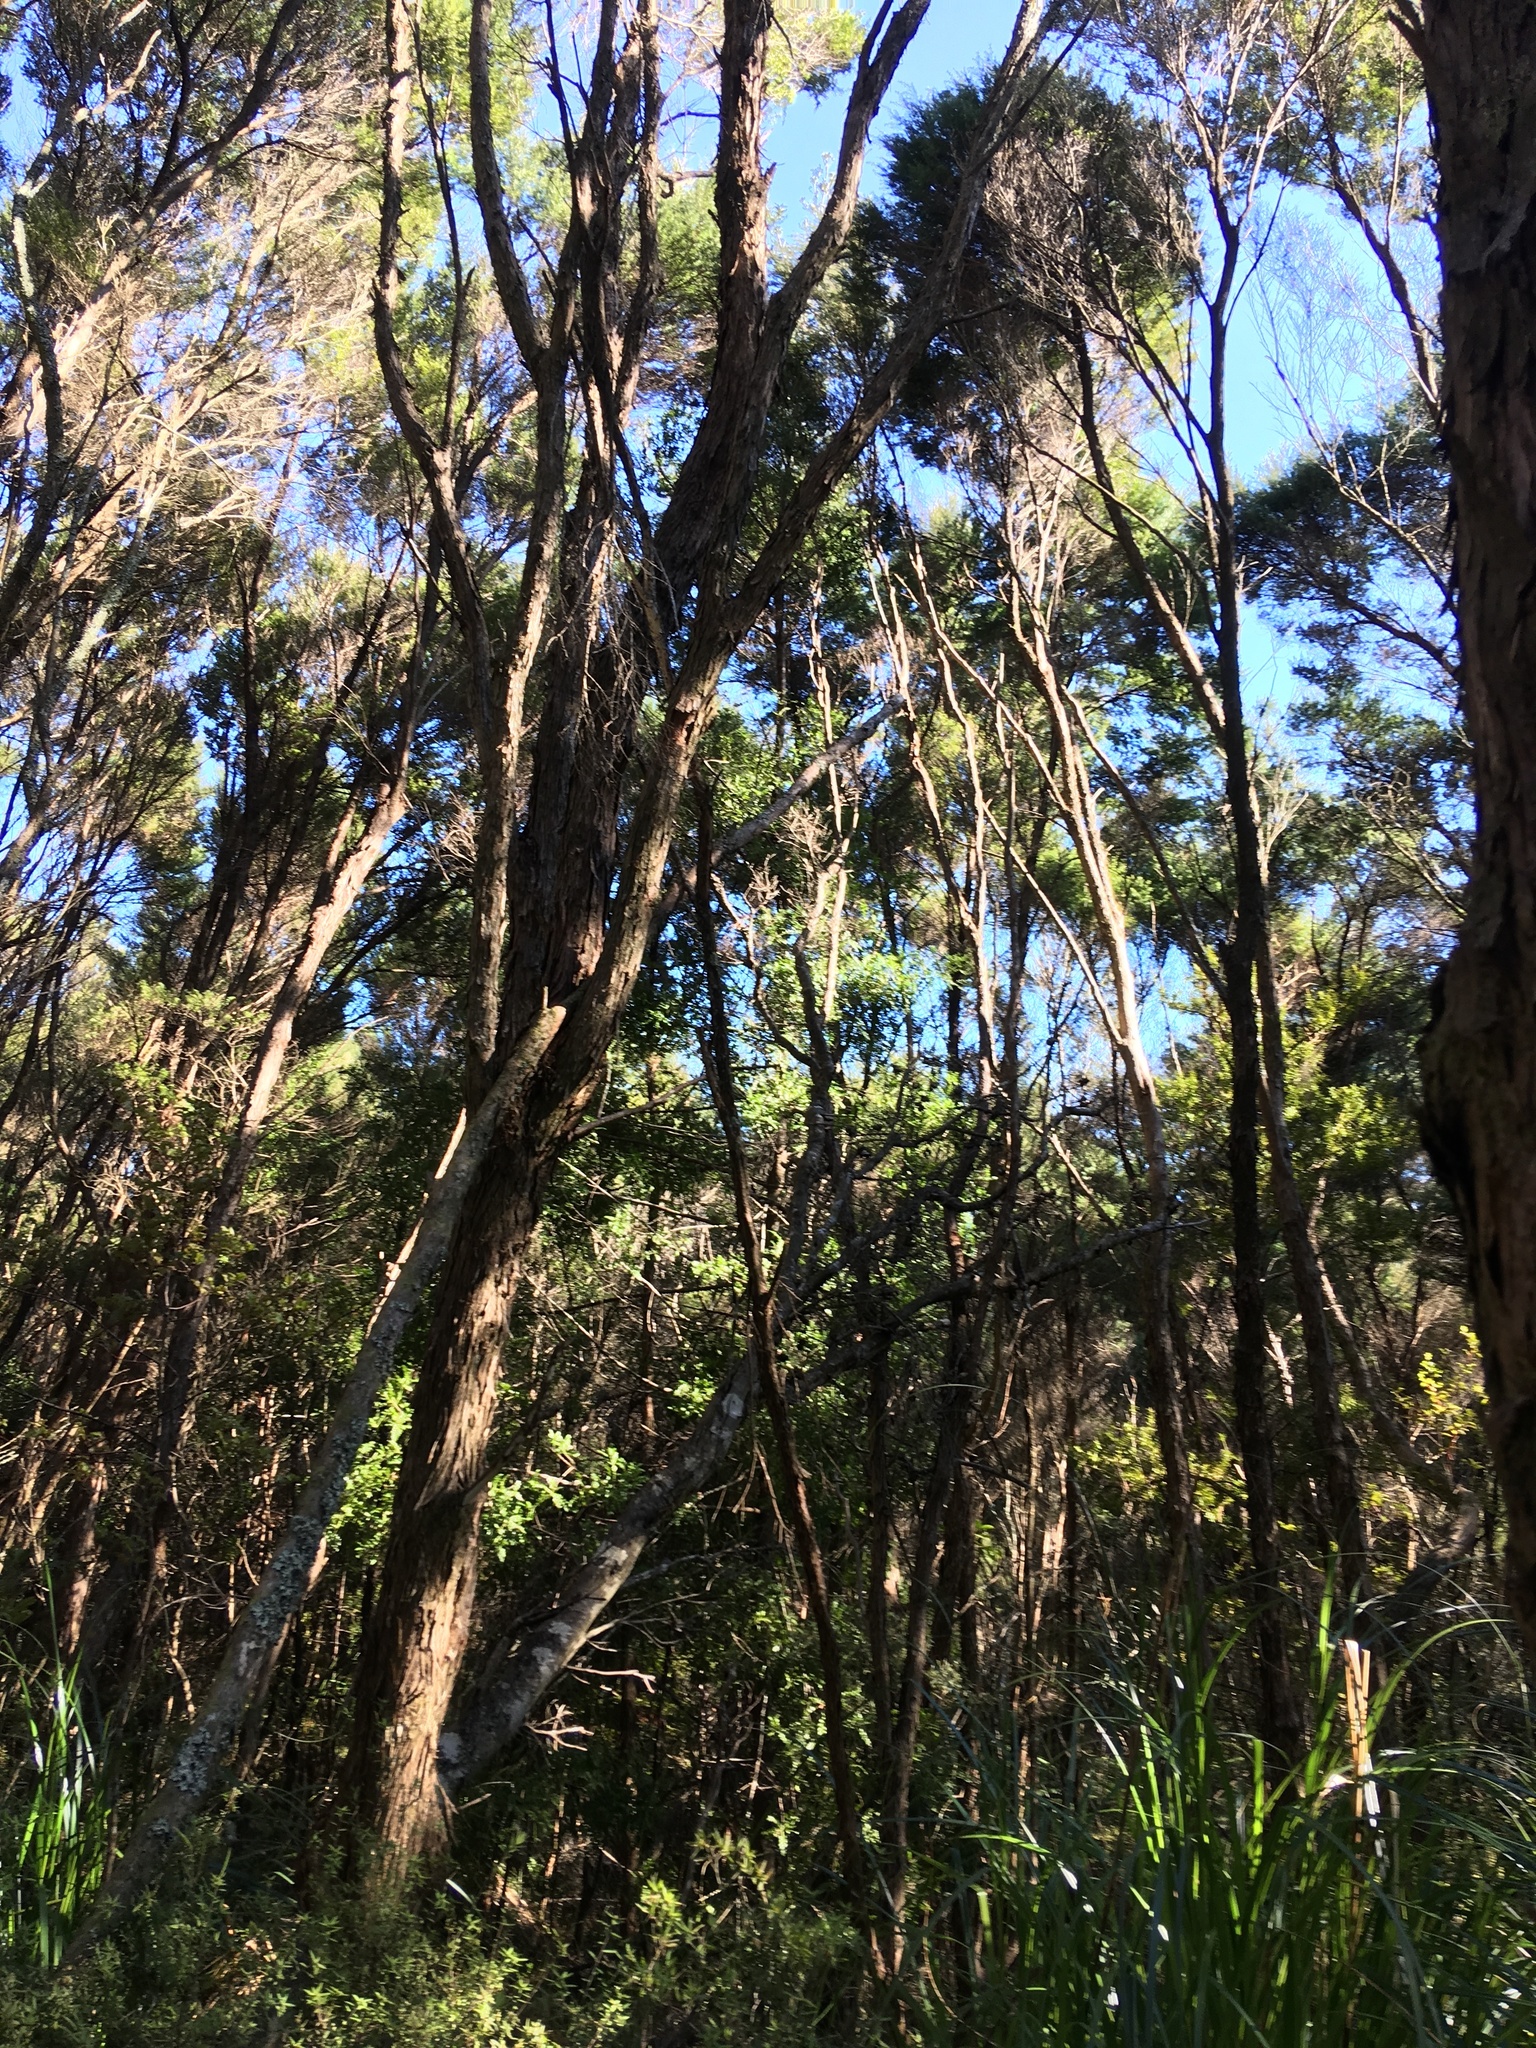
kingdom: Plantae
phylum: Tracheophyta
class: Pinopsida
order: Pinales
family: Phyllocladaceae
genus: Phyllocladus
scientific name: Phyllocladus trichomanoides
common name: Celery pine
